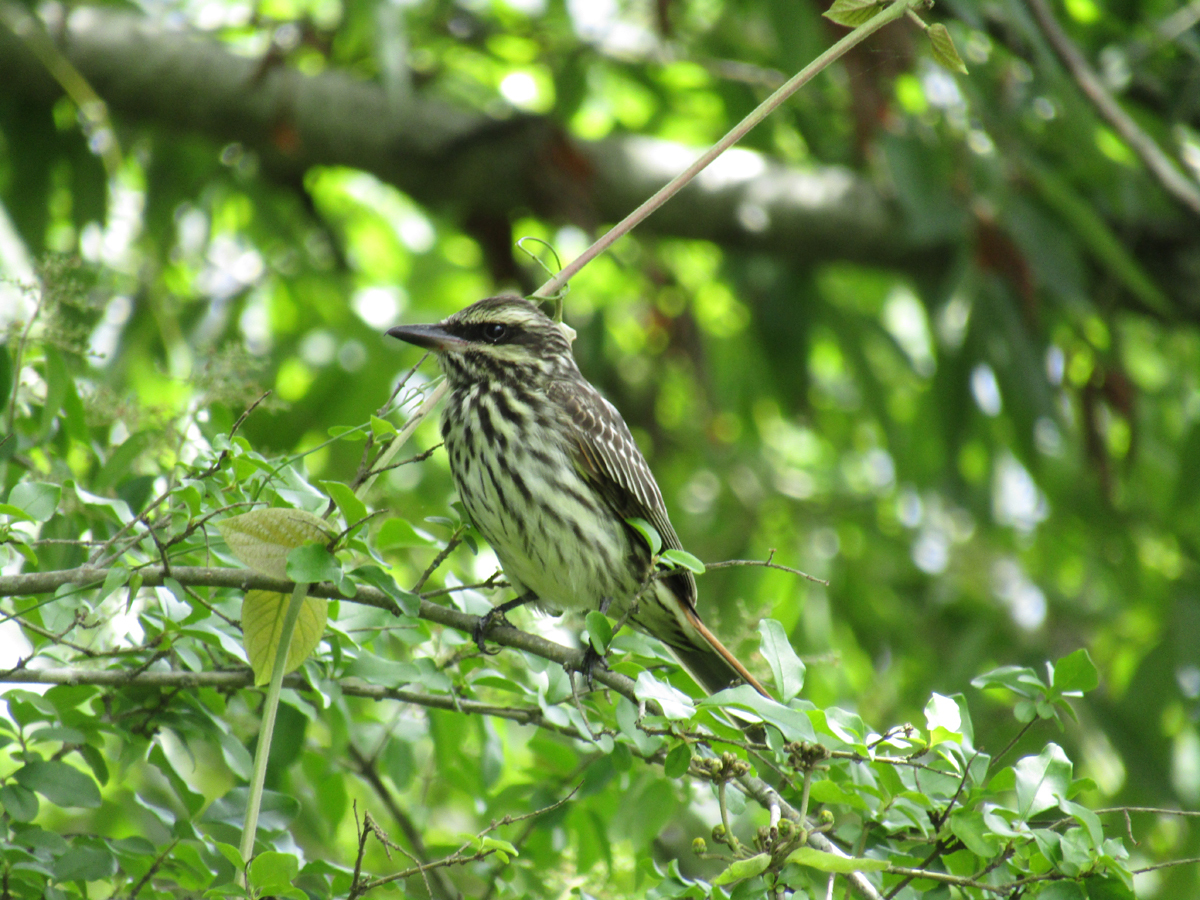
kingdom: Animalia
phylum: Chordata
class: Aves
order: Passeriformes
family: Tyrannidae
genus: Myiodynastes
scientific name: Myiodynastes maculatus
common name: Streaked flycatcher
